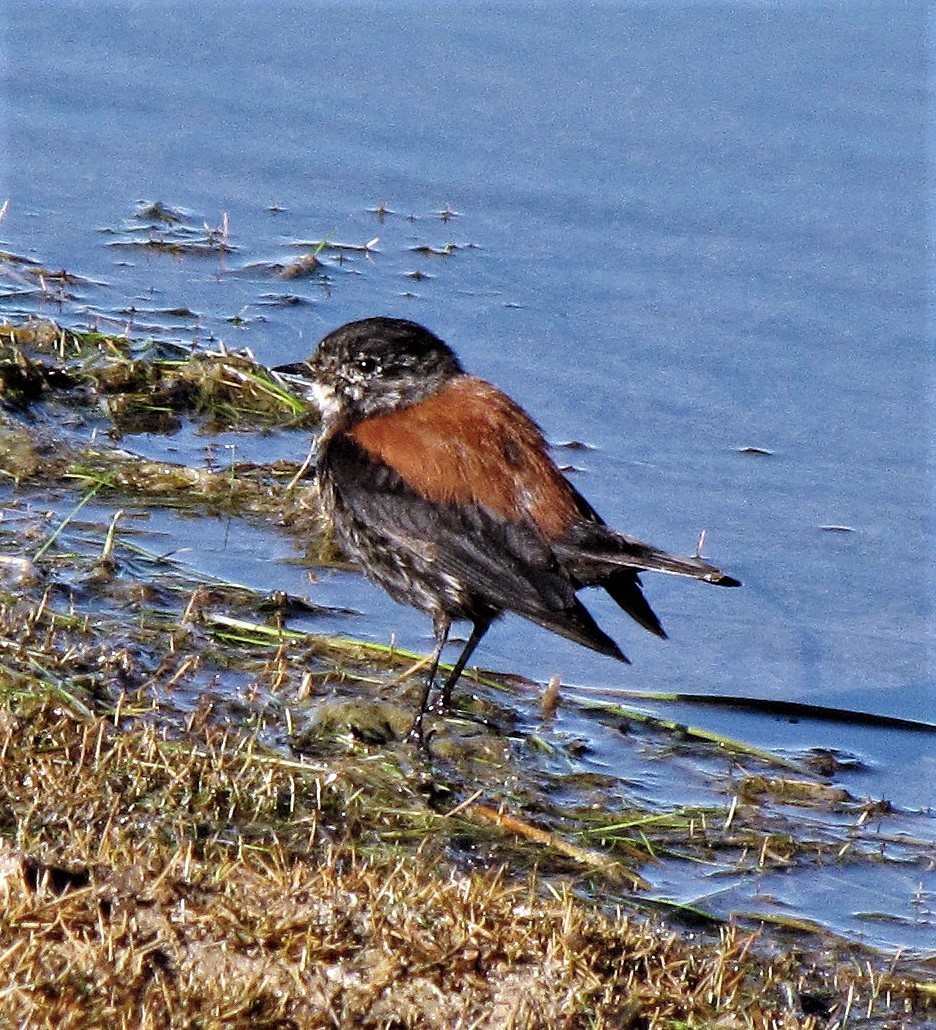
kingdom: Animalia
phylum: Chordata
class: Aves
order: Passeriformes
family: Tyrannidae
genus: Lessonia
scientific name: Lessonia oreas
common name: Andean negrito
